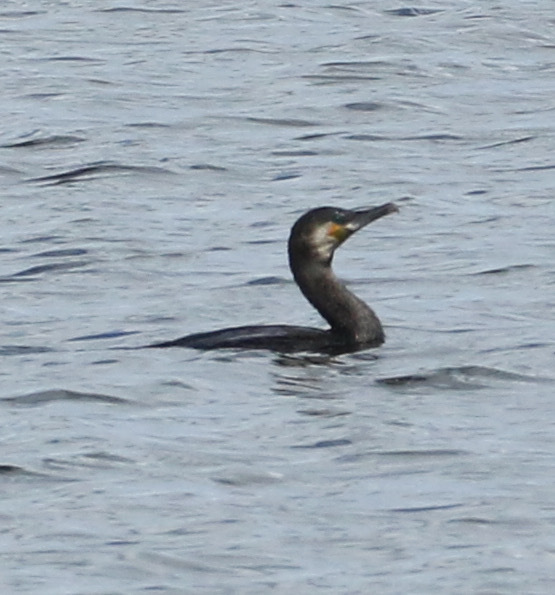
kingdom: Animalia
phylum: Chordata
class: Aves
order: Suliformes
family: Phalacrocoracidae
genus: Phalacrocorax
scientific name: Phalacrocorax carbo
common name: Great cormorant
